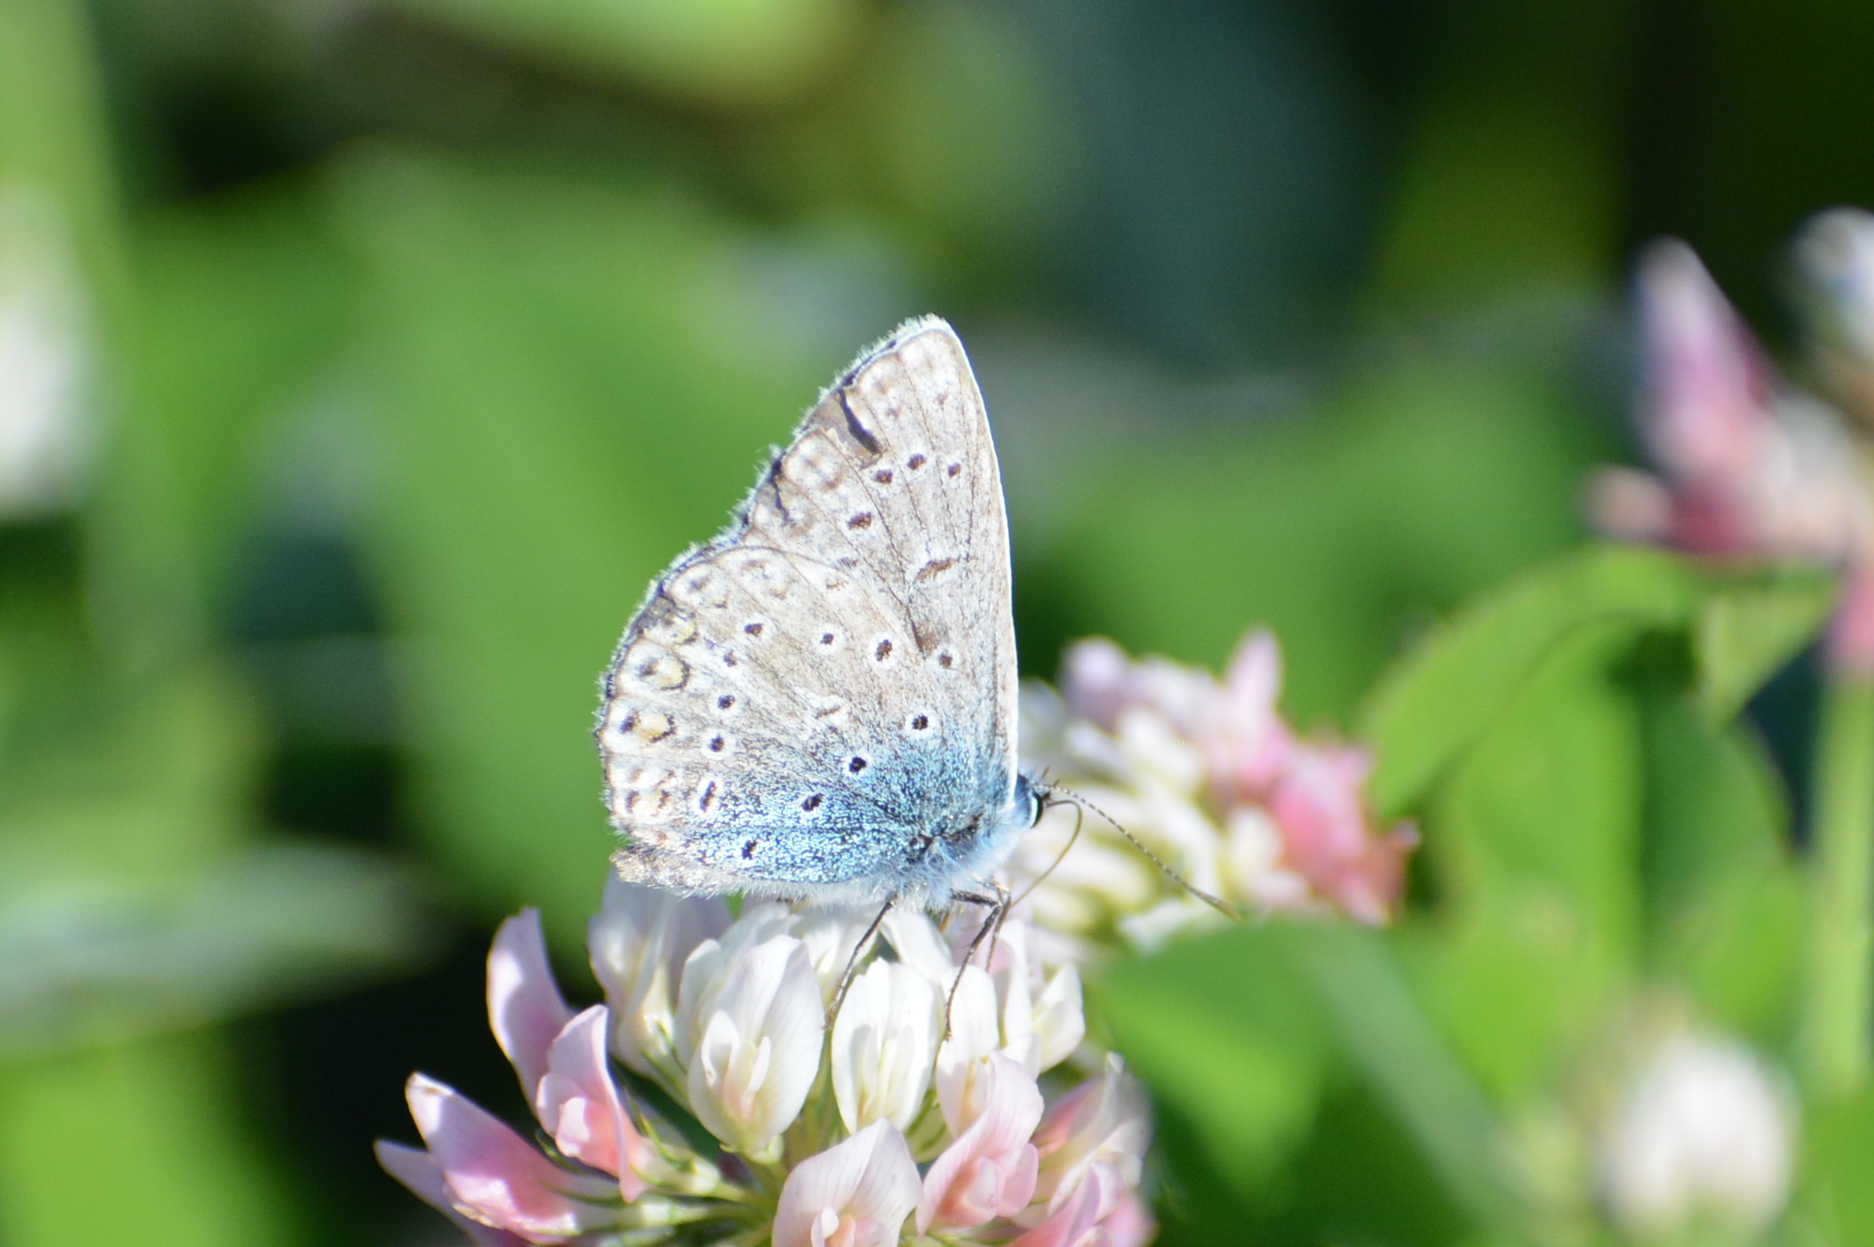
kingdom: Animalia
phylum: Arthropoda
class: Insecta
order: Lepidoptera
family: Lycaenidae
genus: Polyommatus
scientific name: Polyommatus icarus
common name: Common blue
